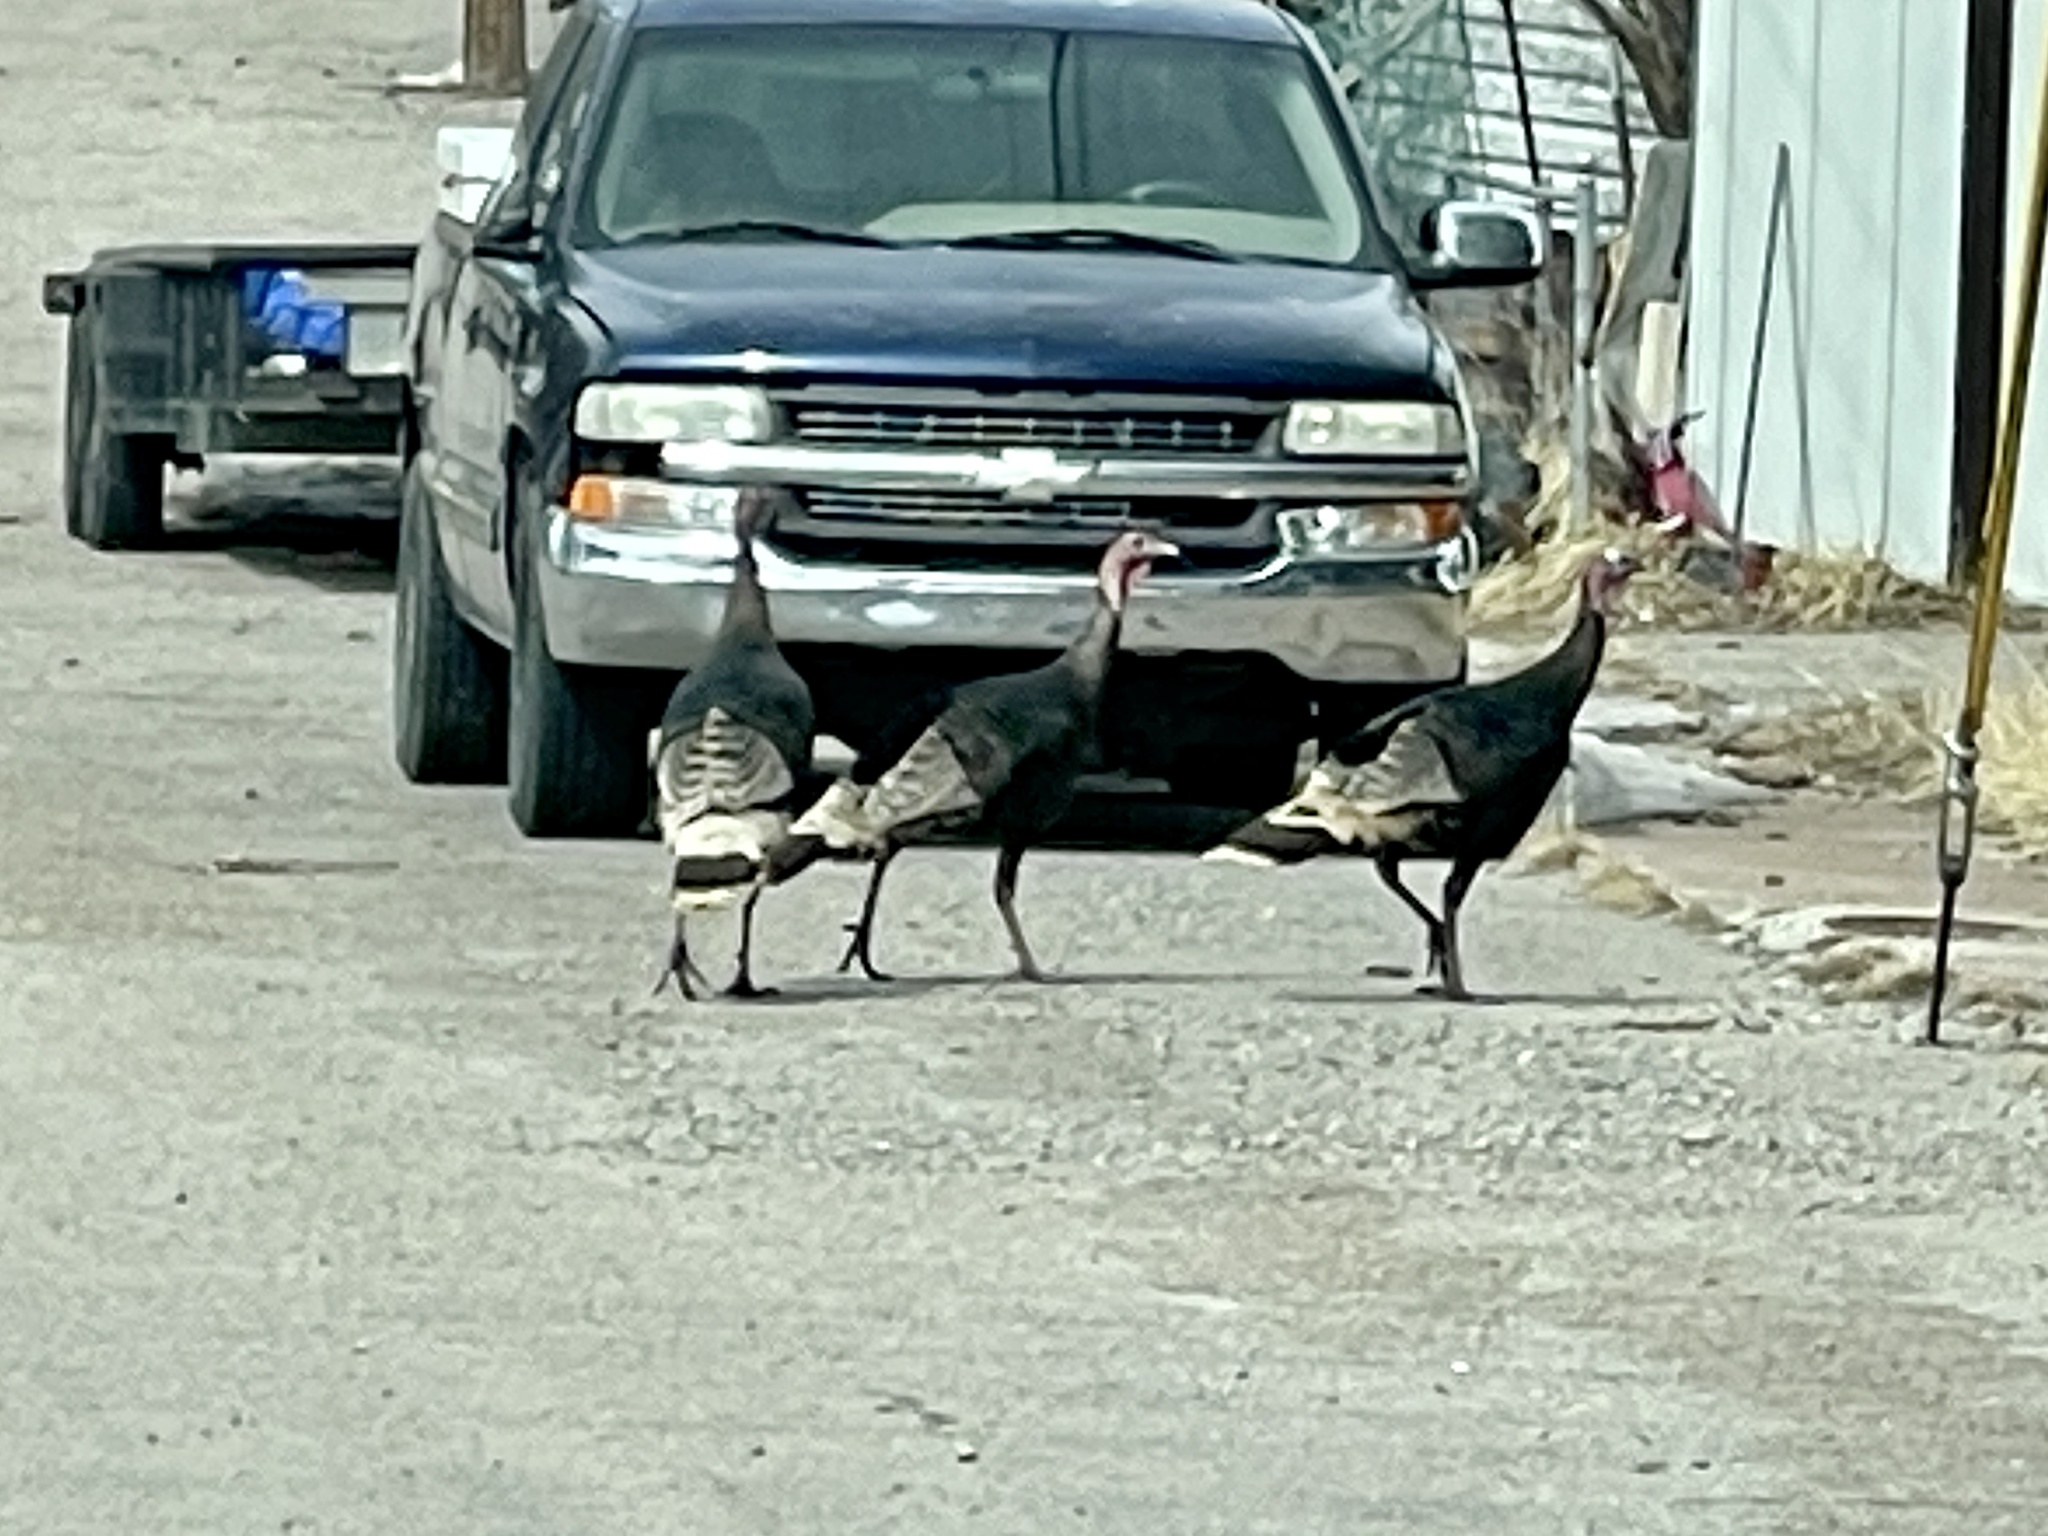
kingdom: Animalia
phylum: Chordata
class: Aves
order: Galliformes
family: Phasianidae
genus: Meleagris
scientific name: Meleagris gallopavo
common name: Wild turkey
